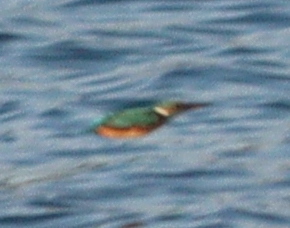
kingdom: Animalia
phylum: Chordata
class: Aves
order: Coraciiformes
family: Alcedinidae
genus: Alcedo
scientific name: Alcedo atthis
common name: Common kingfisher
